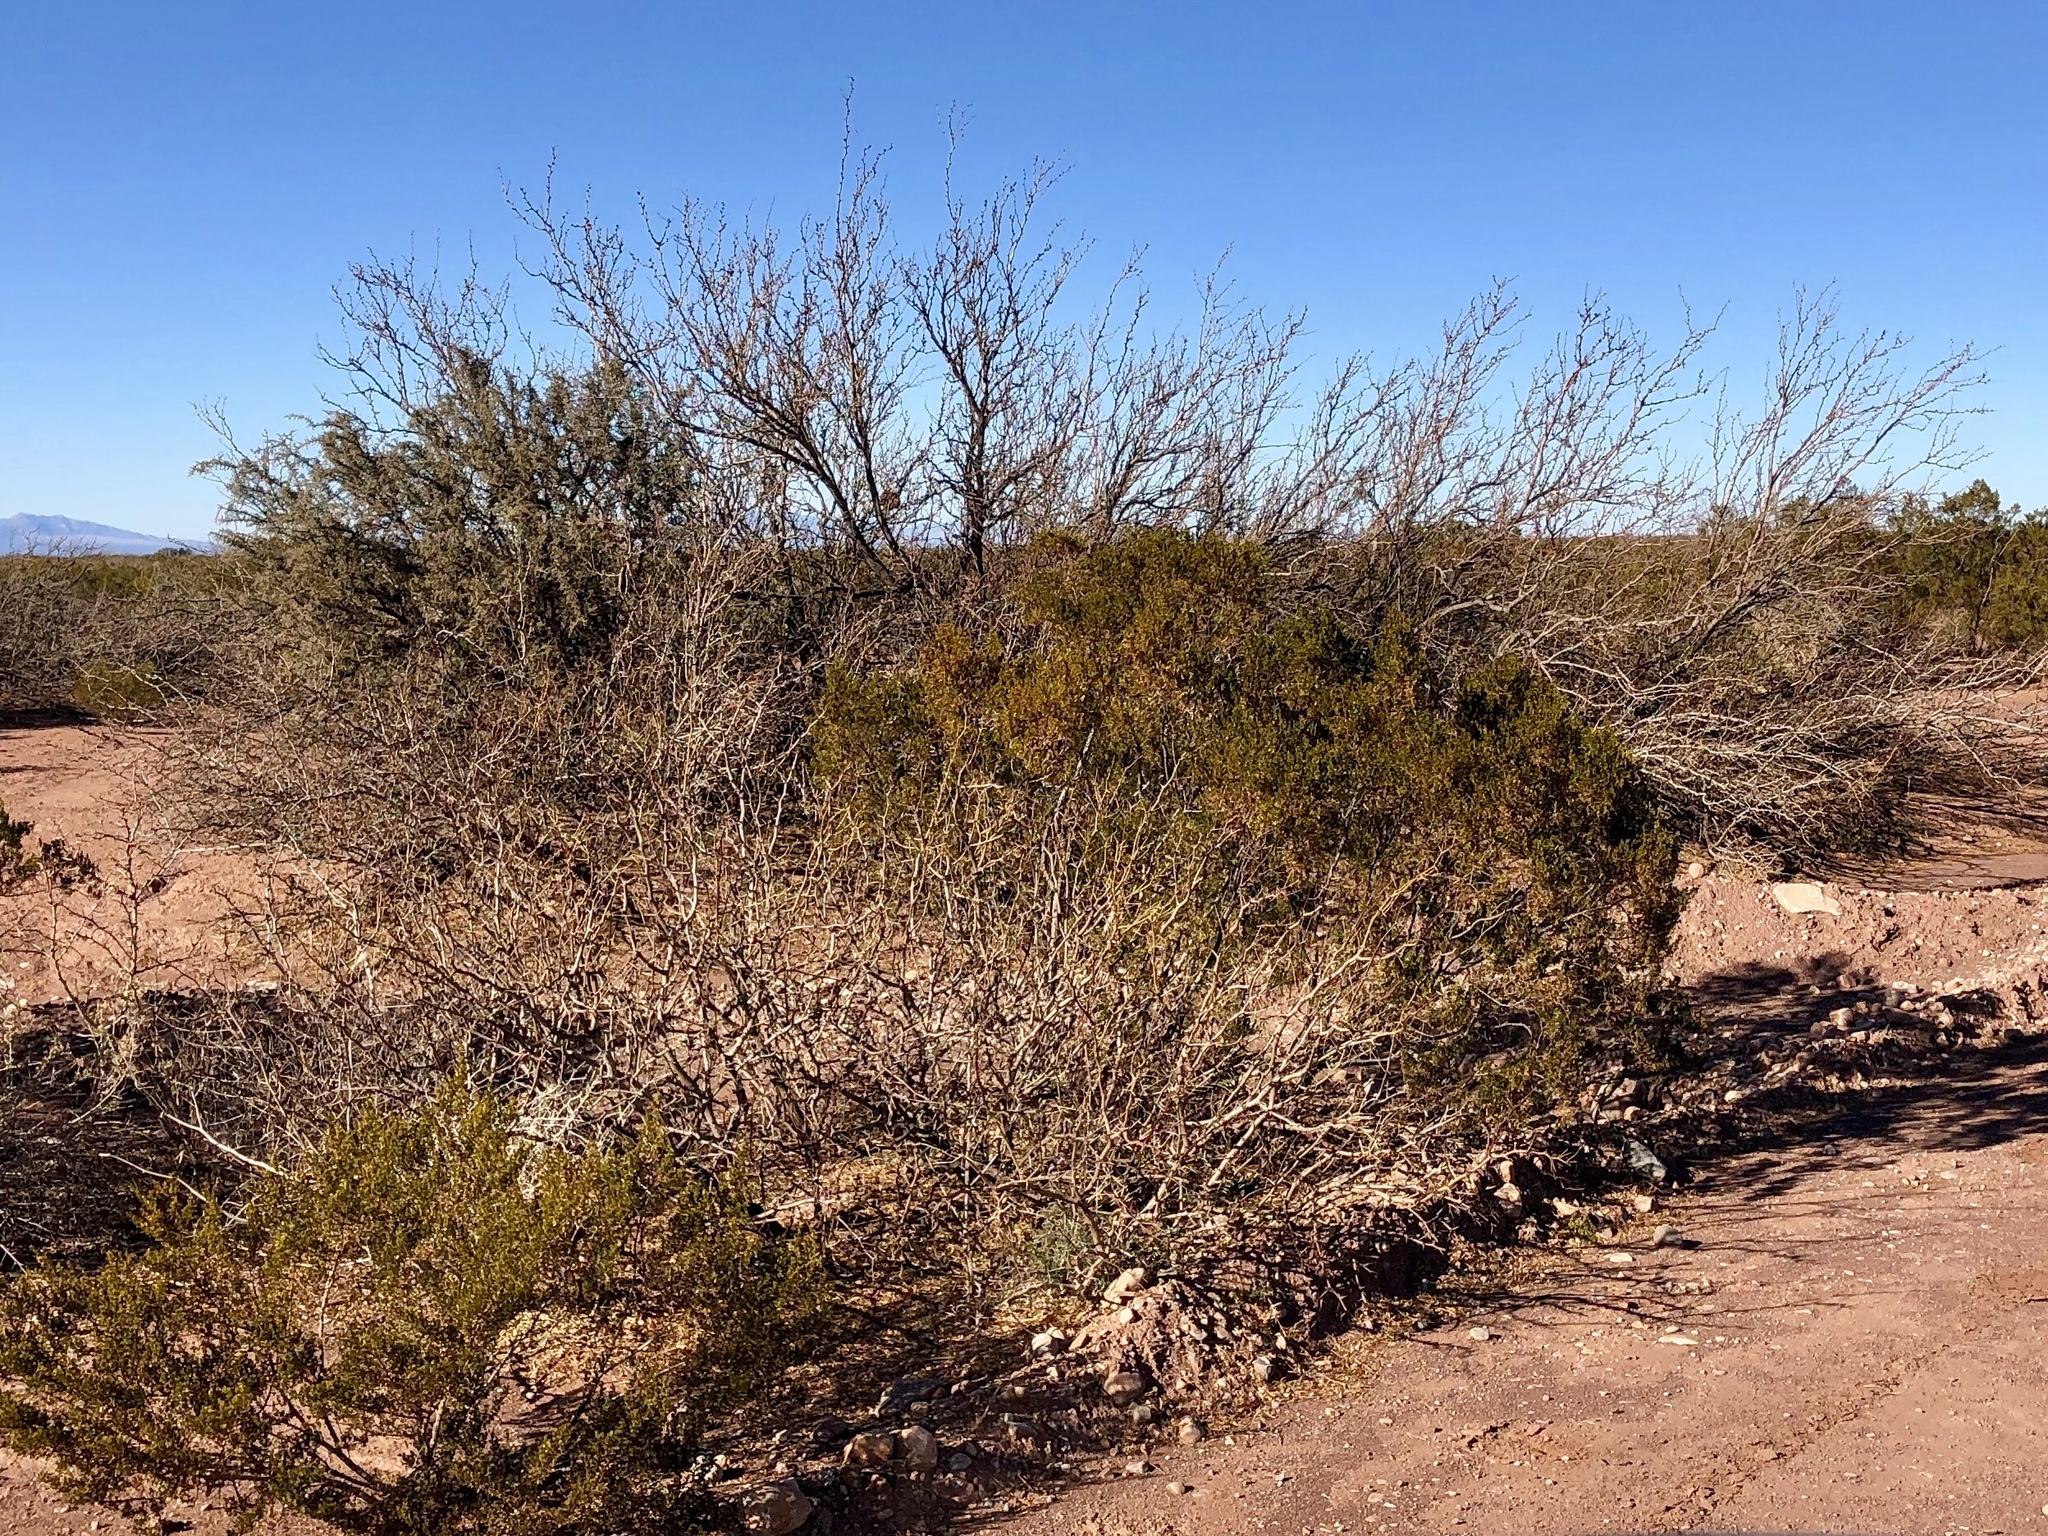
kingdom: Plantae
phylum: Tracheophyta
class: Magnoliopsida
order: Fabales
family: Fabaceae
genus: Prosopis
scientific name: Prosopis glandulosa
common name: Honey mesquite
